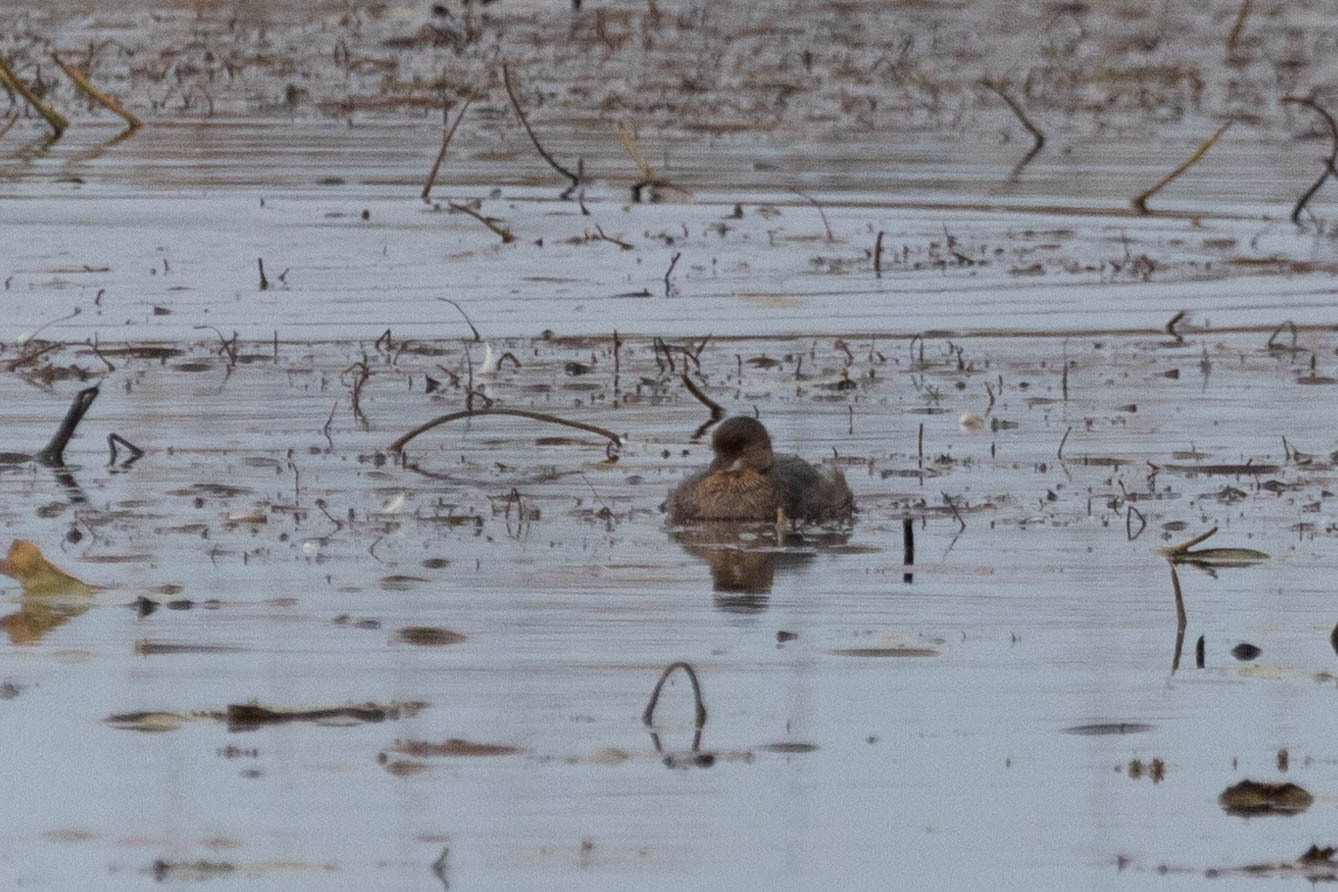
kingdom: Animalia
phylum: Chordata
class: Aves
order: Podicipediformes
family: Podicipedidae
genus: Podilymbus
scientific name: Podilymbus podiceps
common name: Pied-billed grebe
